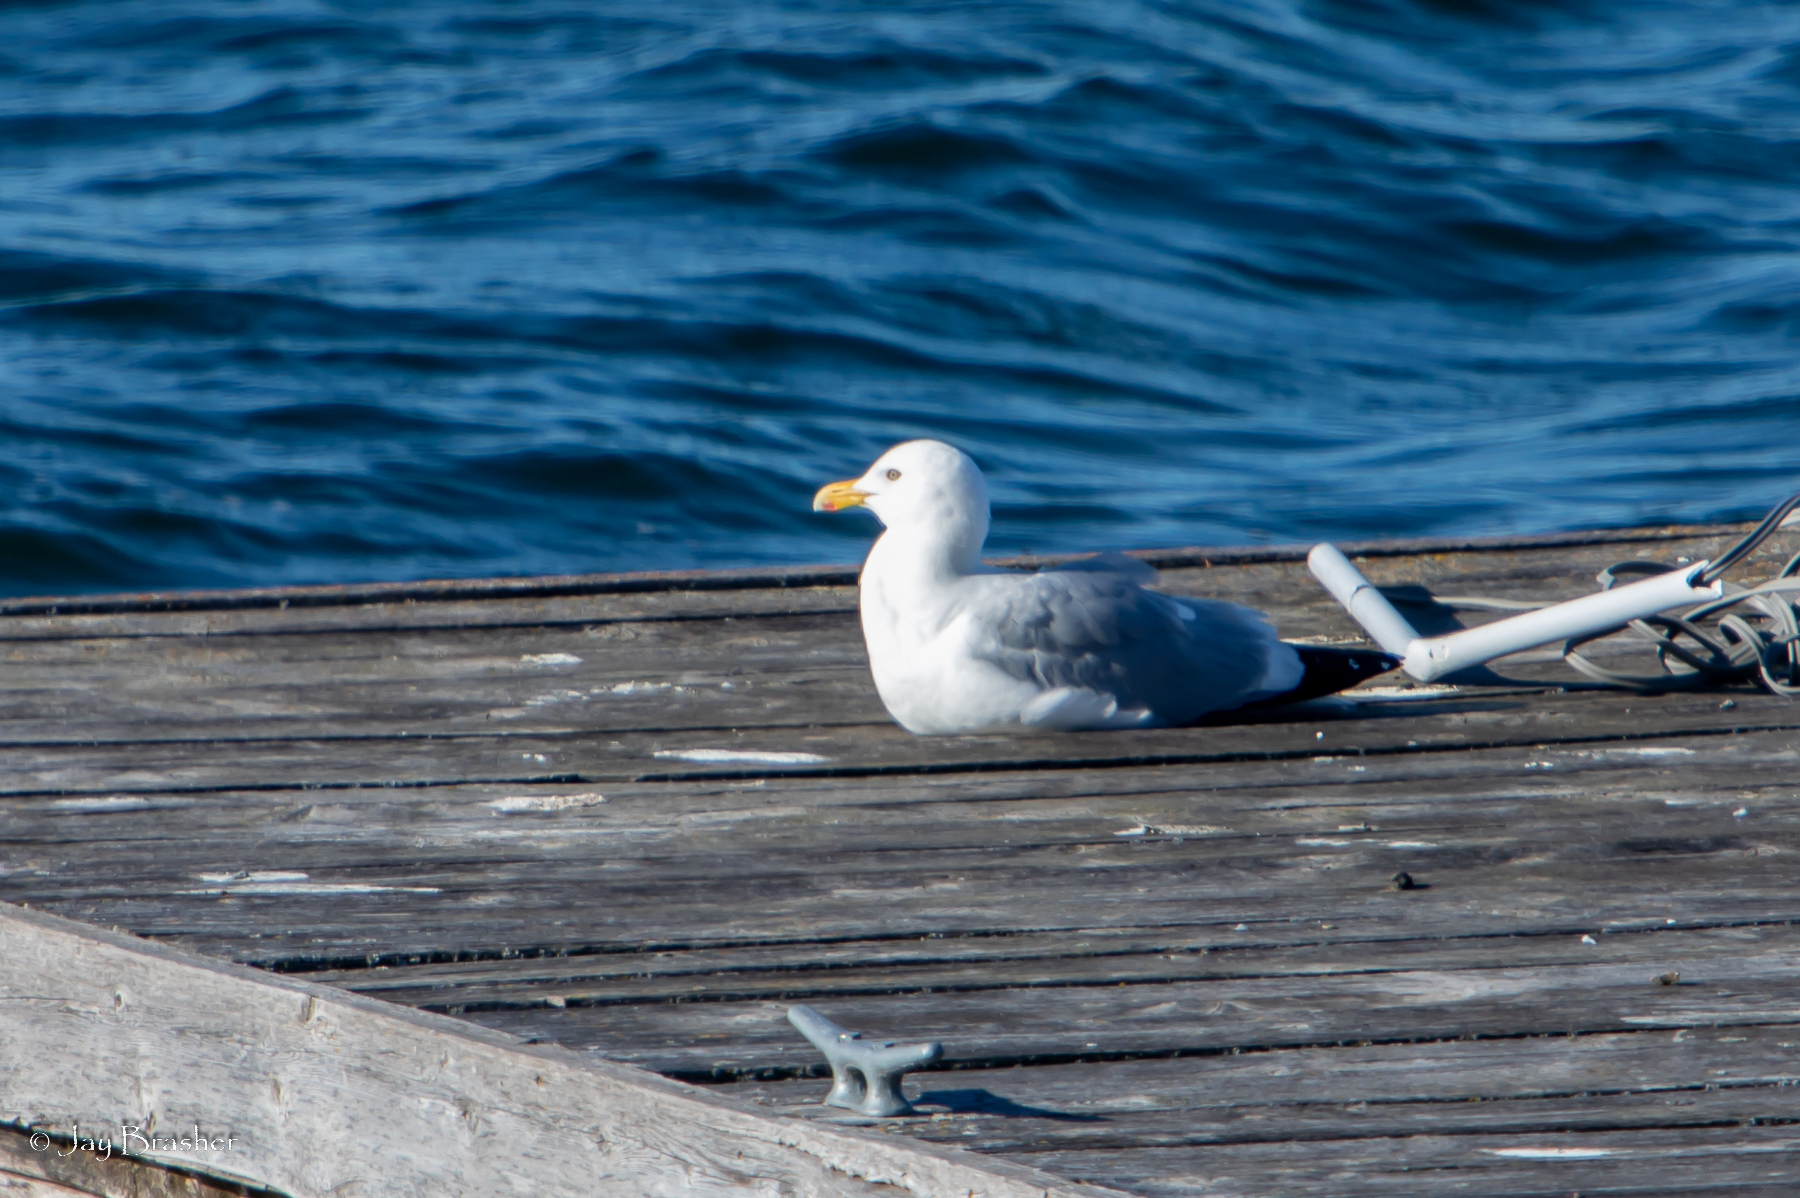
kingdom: Animalia
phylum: Chordata
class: Aves
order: Charadriiformes
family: Laridae
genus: Larus
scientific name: Larus argentatus
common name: Herring gull
